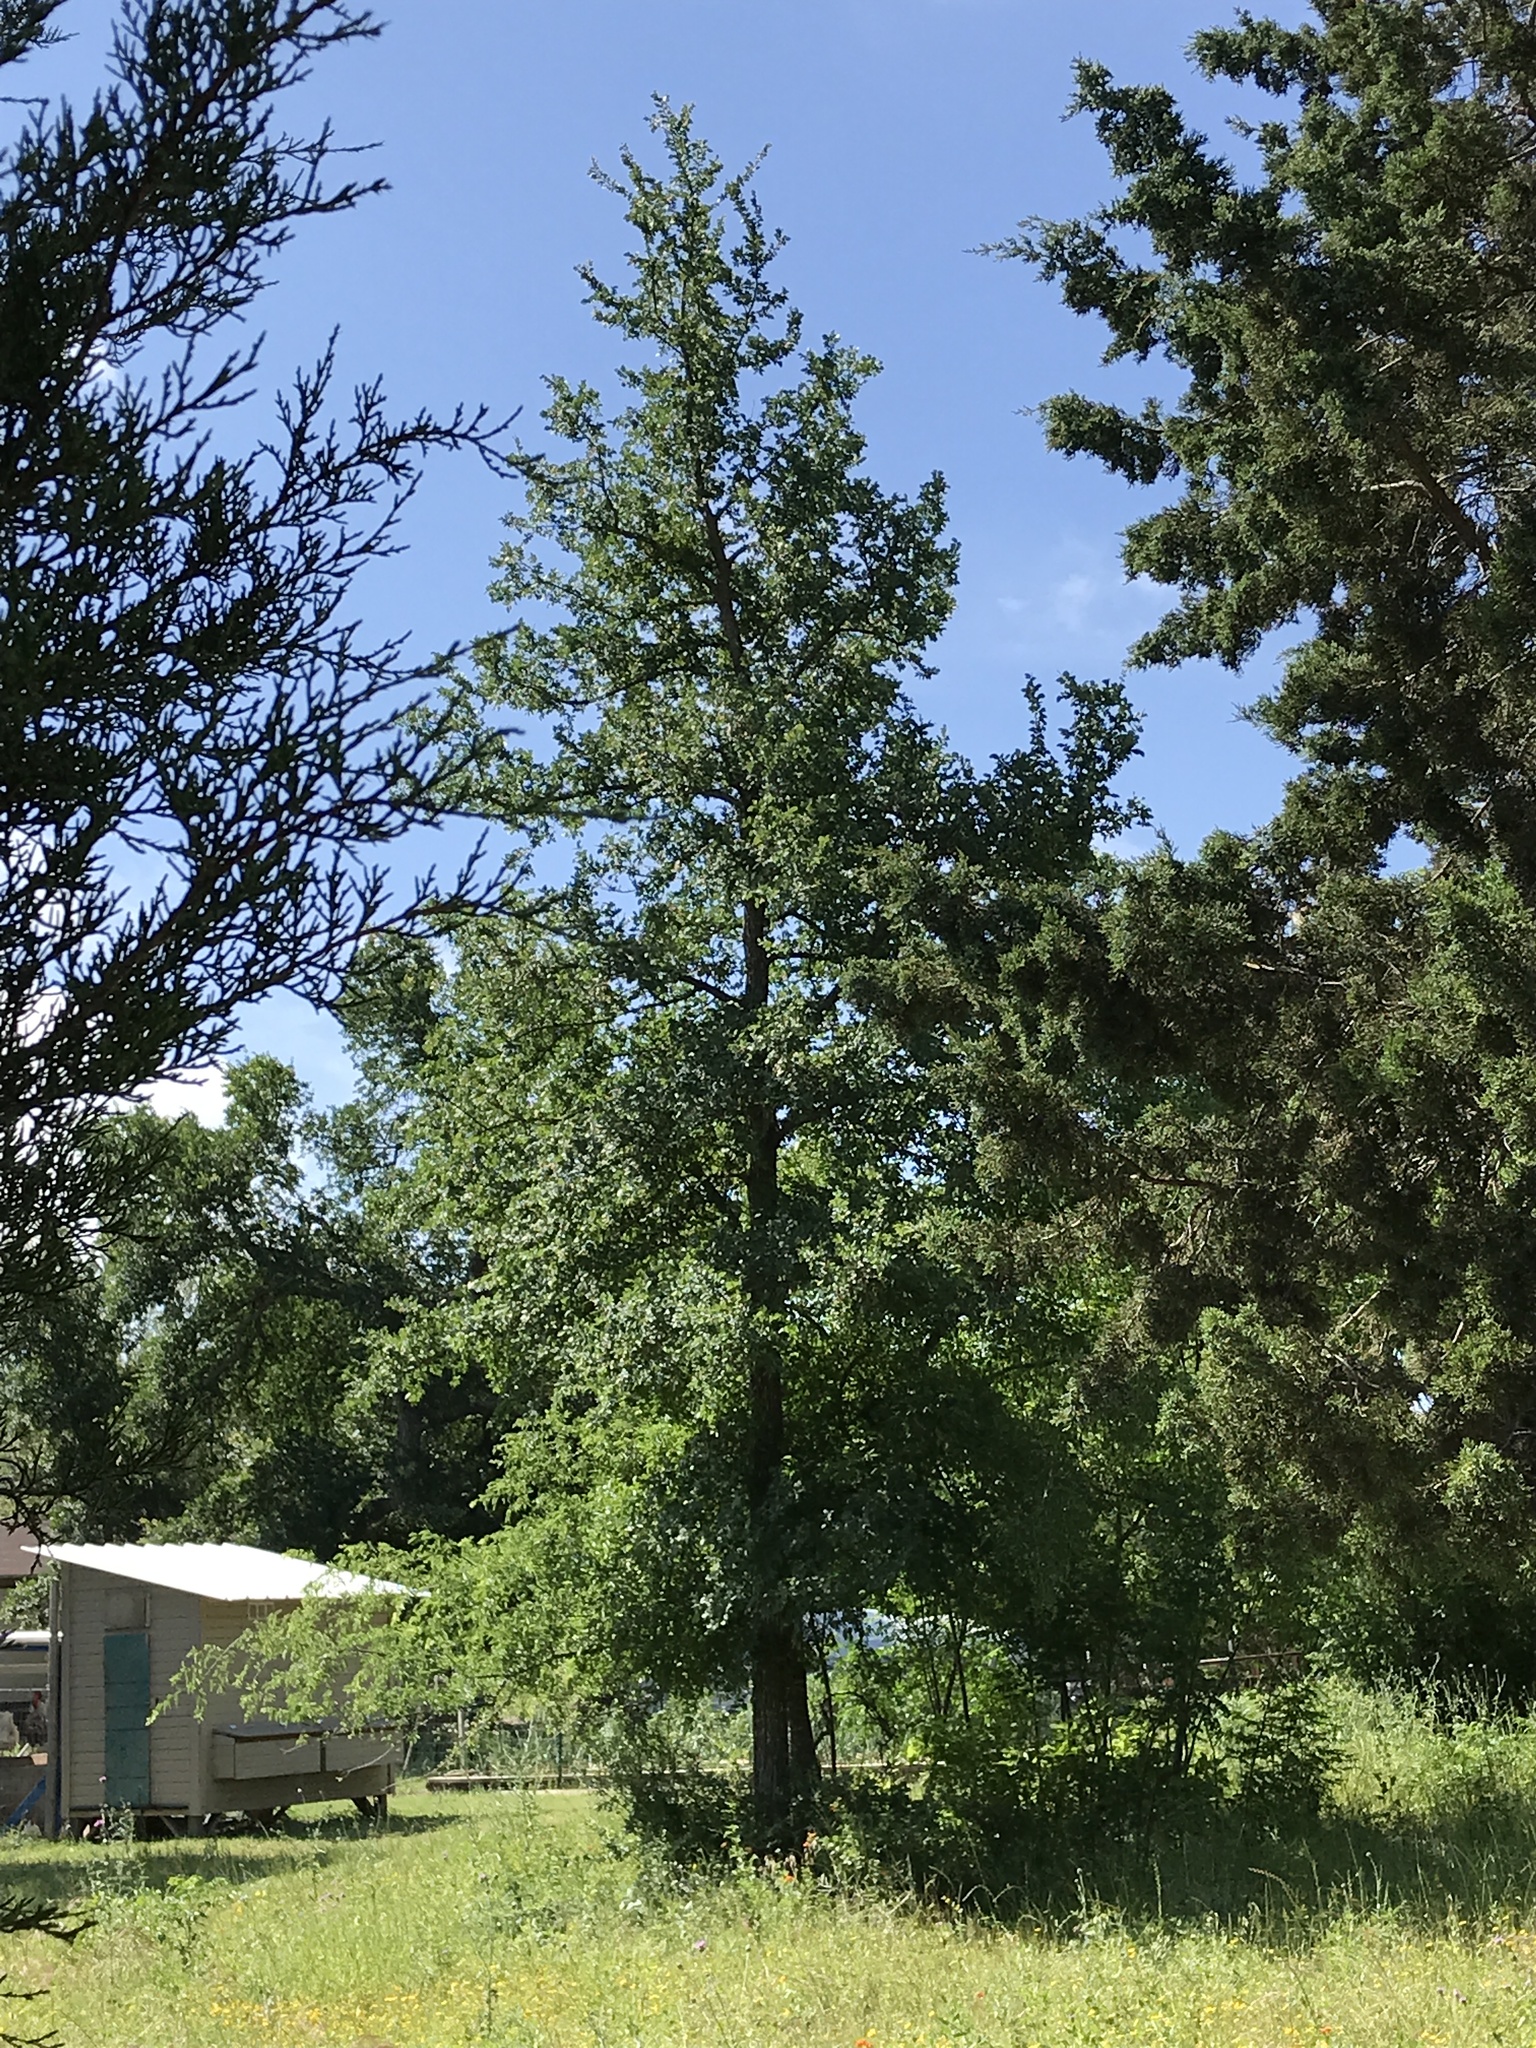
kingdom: Plantae
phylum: Tracheophyta
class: Magnoliopsida
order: Rosales
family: Ulmaceae
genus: Ulmus
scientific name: Ulmus crassifolia
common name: Basket elm
